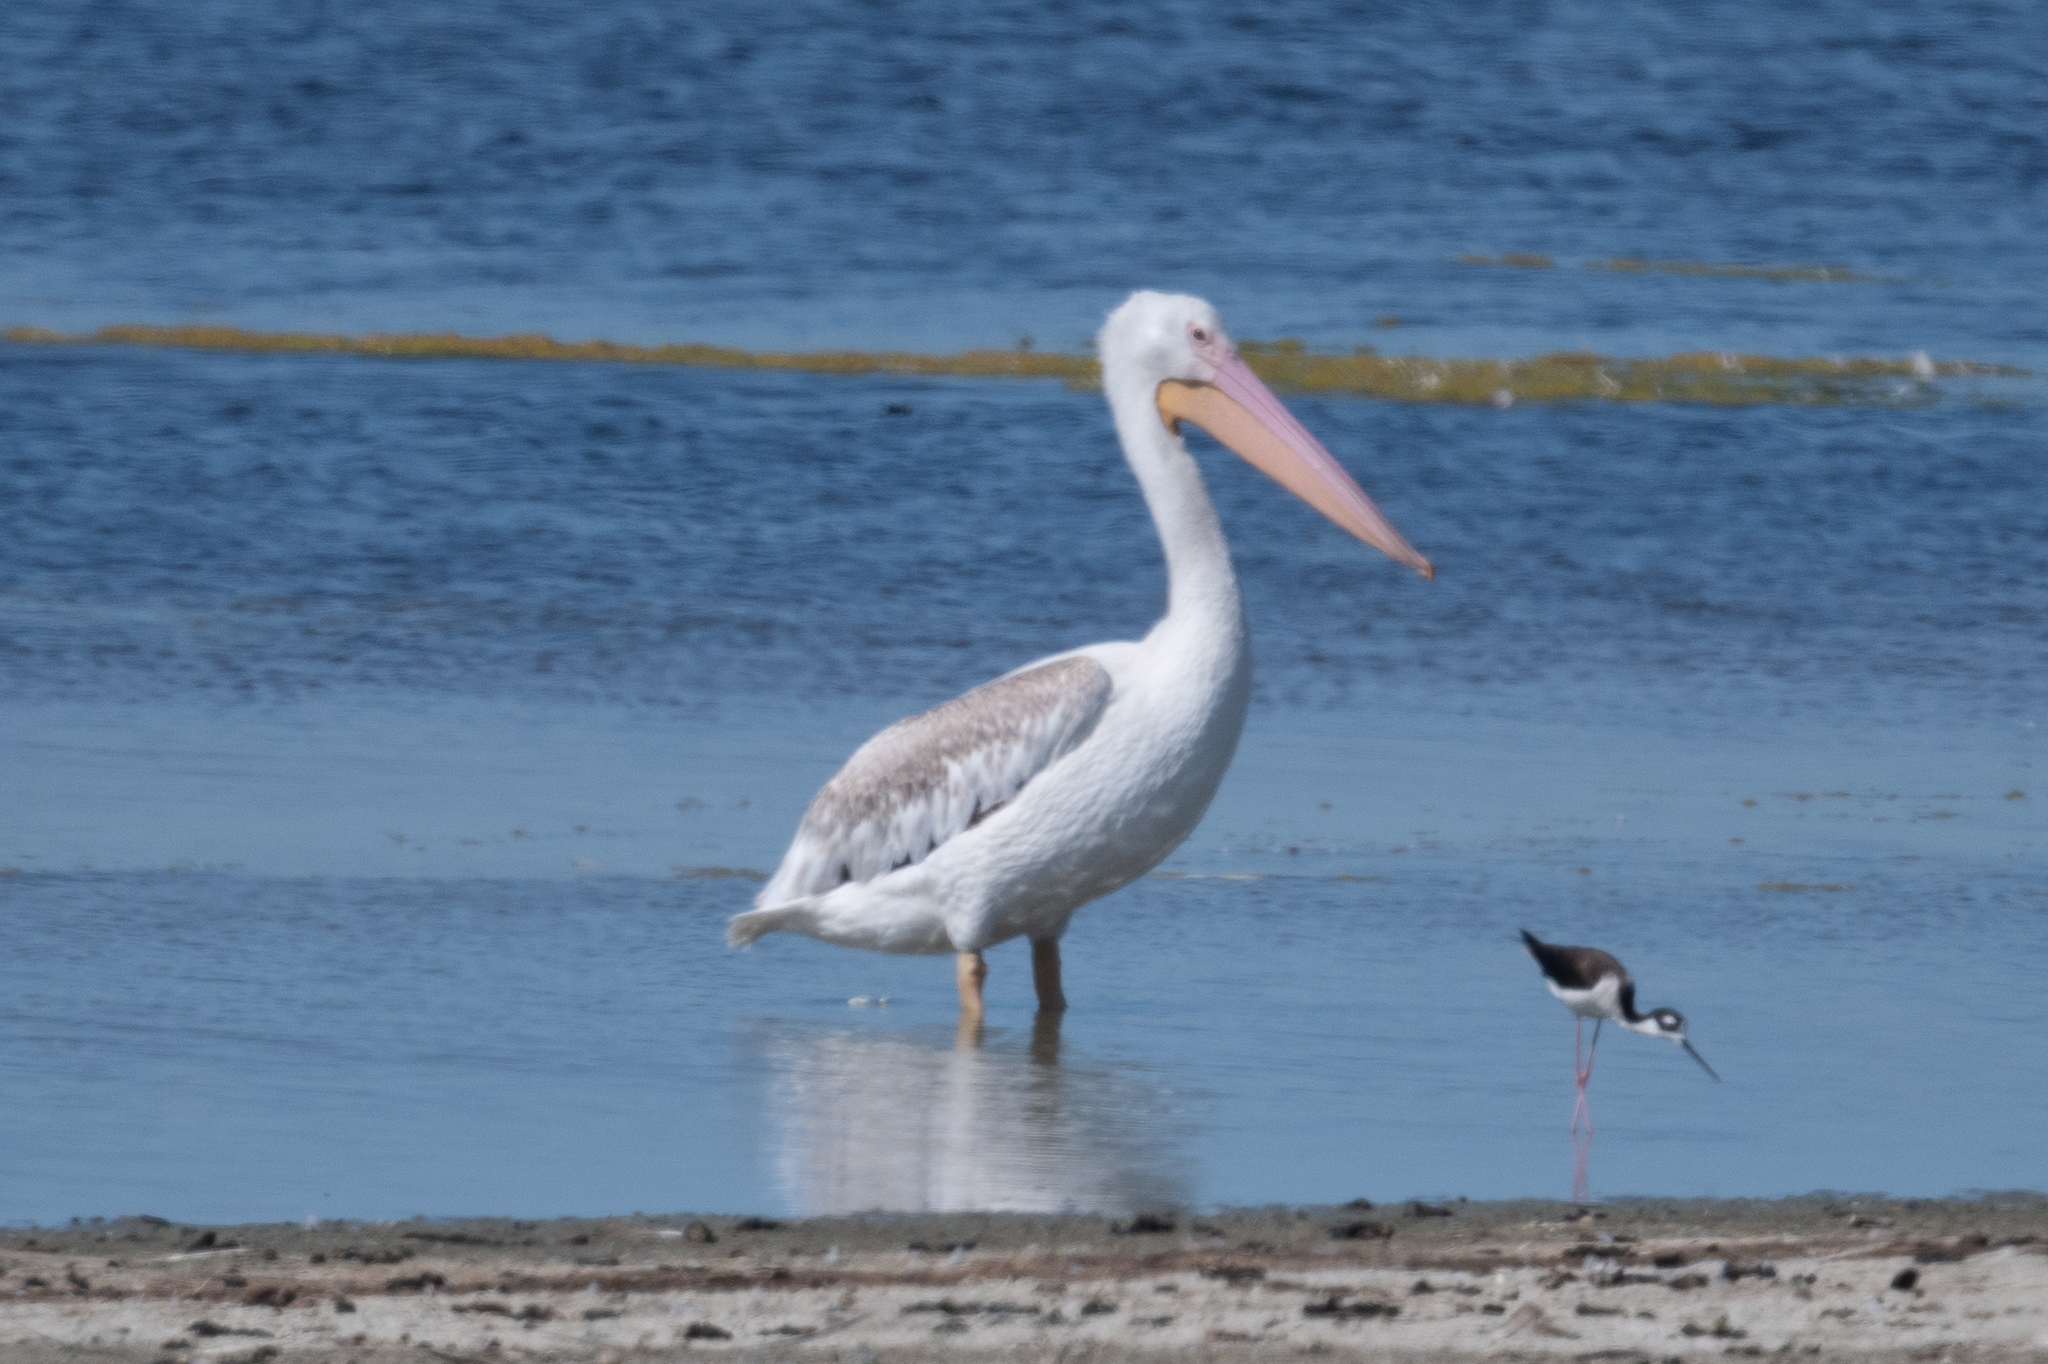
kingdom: Animalia
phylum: Chordata
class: Aves
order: Pelecaniformes
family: Pelecanidae
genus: Pelecanus
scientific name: Pelecanus erythrorhynchos
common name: American white pelican
